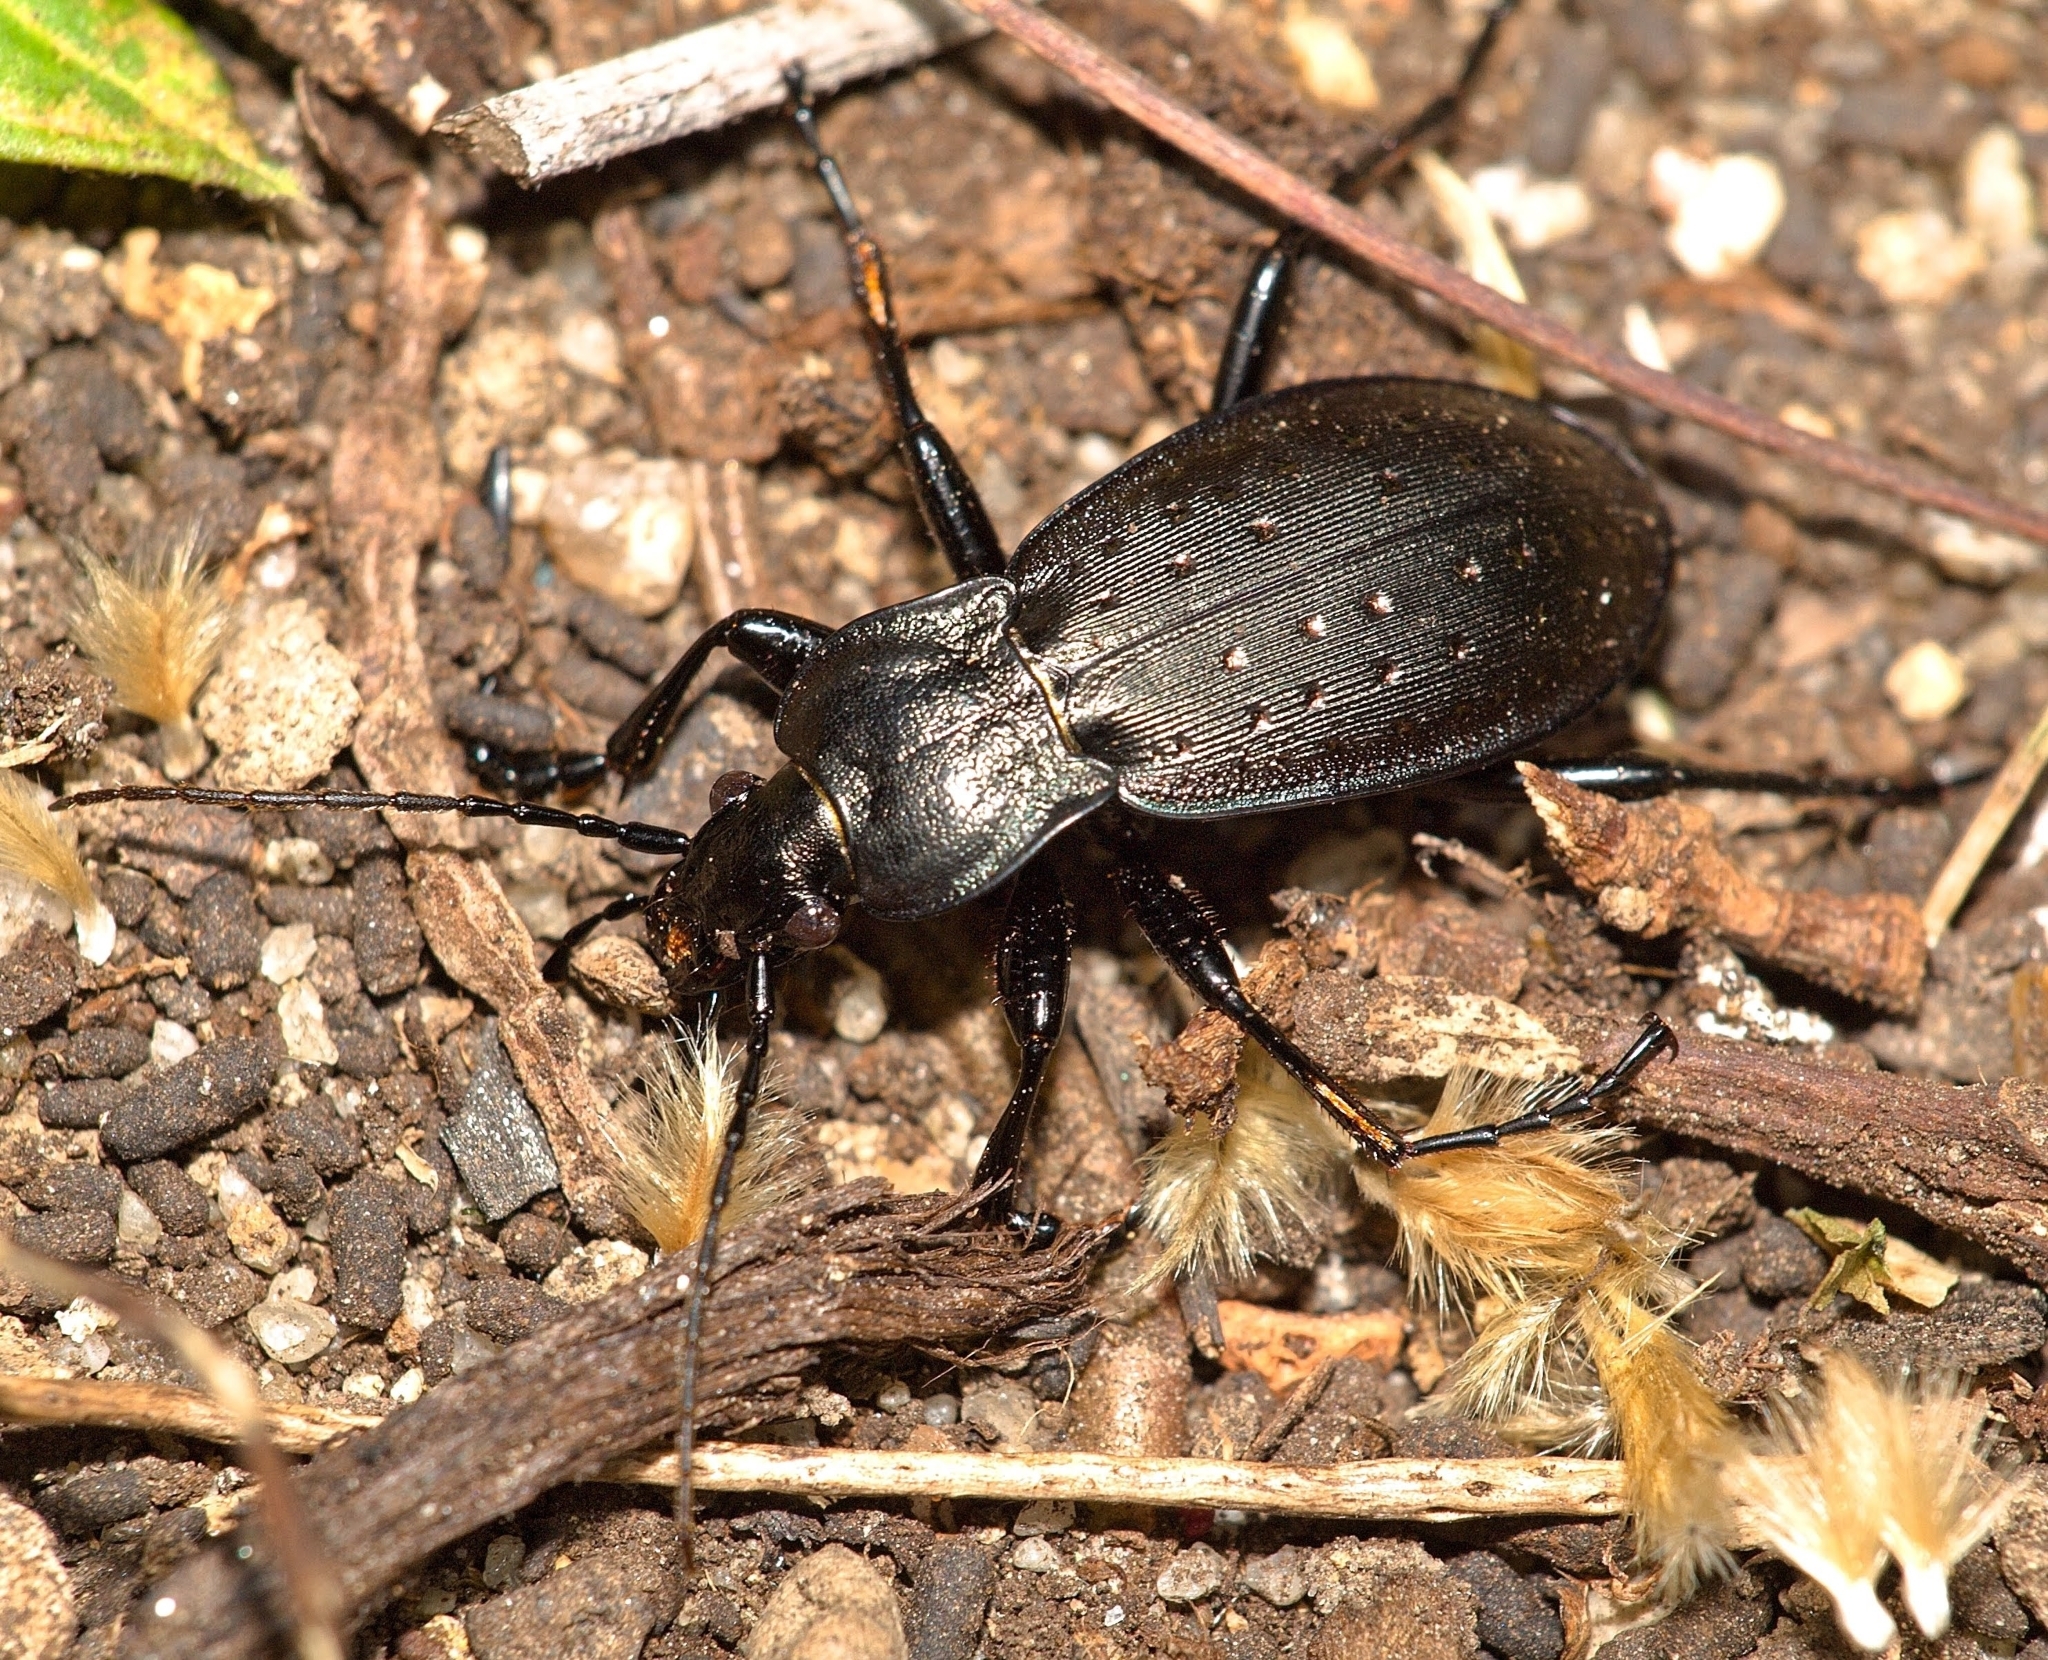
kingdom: Animalia
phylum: Arthropoda
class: Insecta
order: Coleoptera
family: Carabidae
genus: Carabus
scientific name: Carabus hortensis
